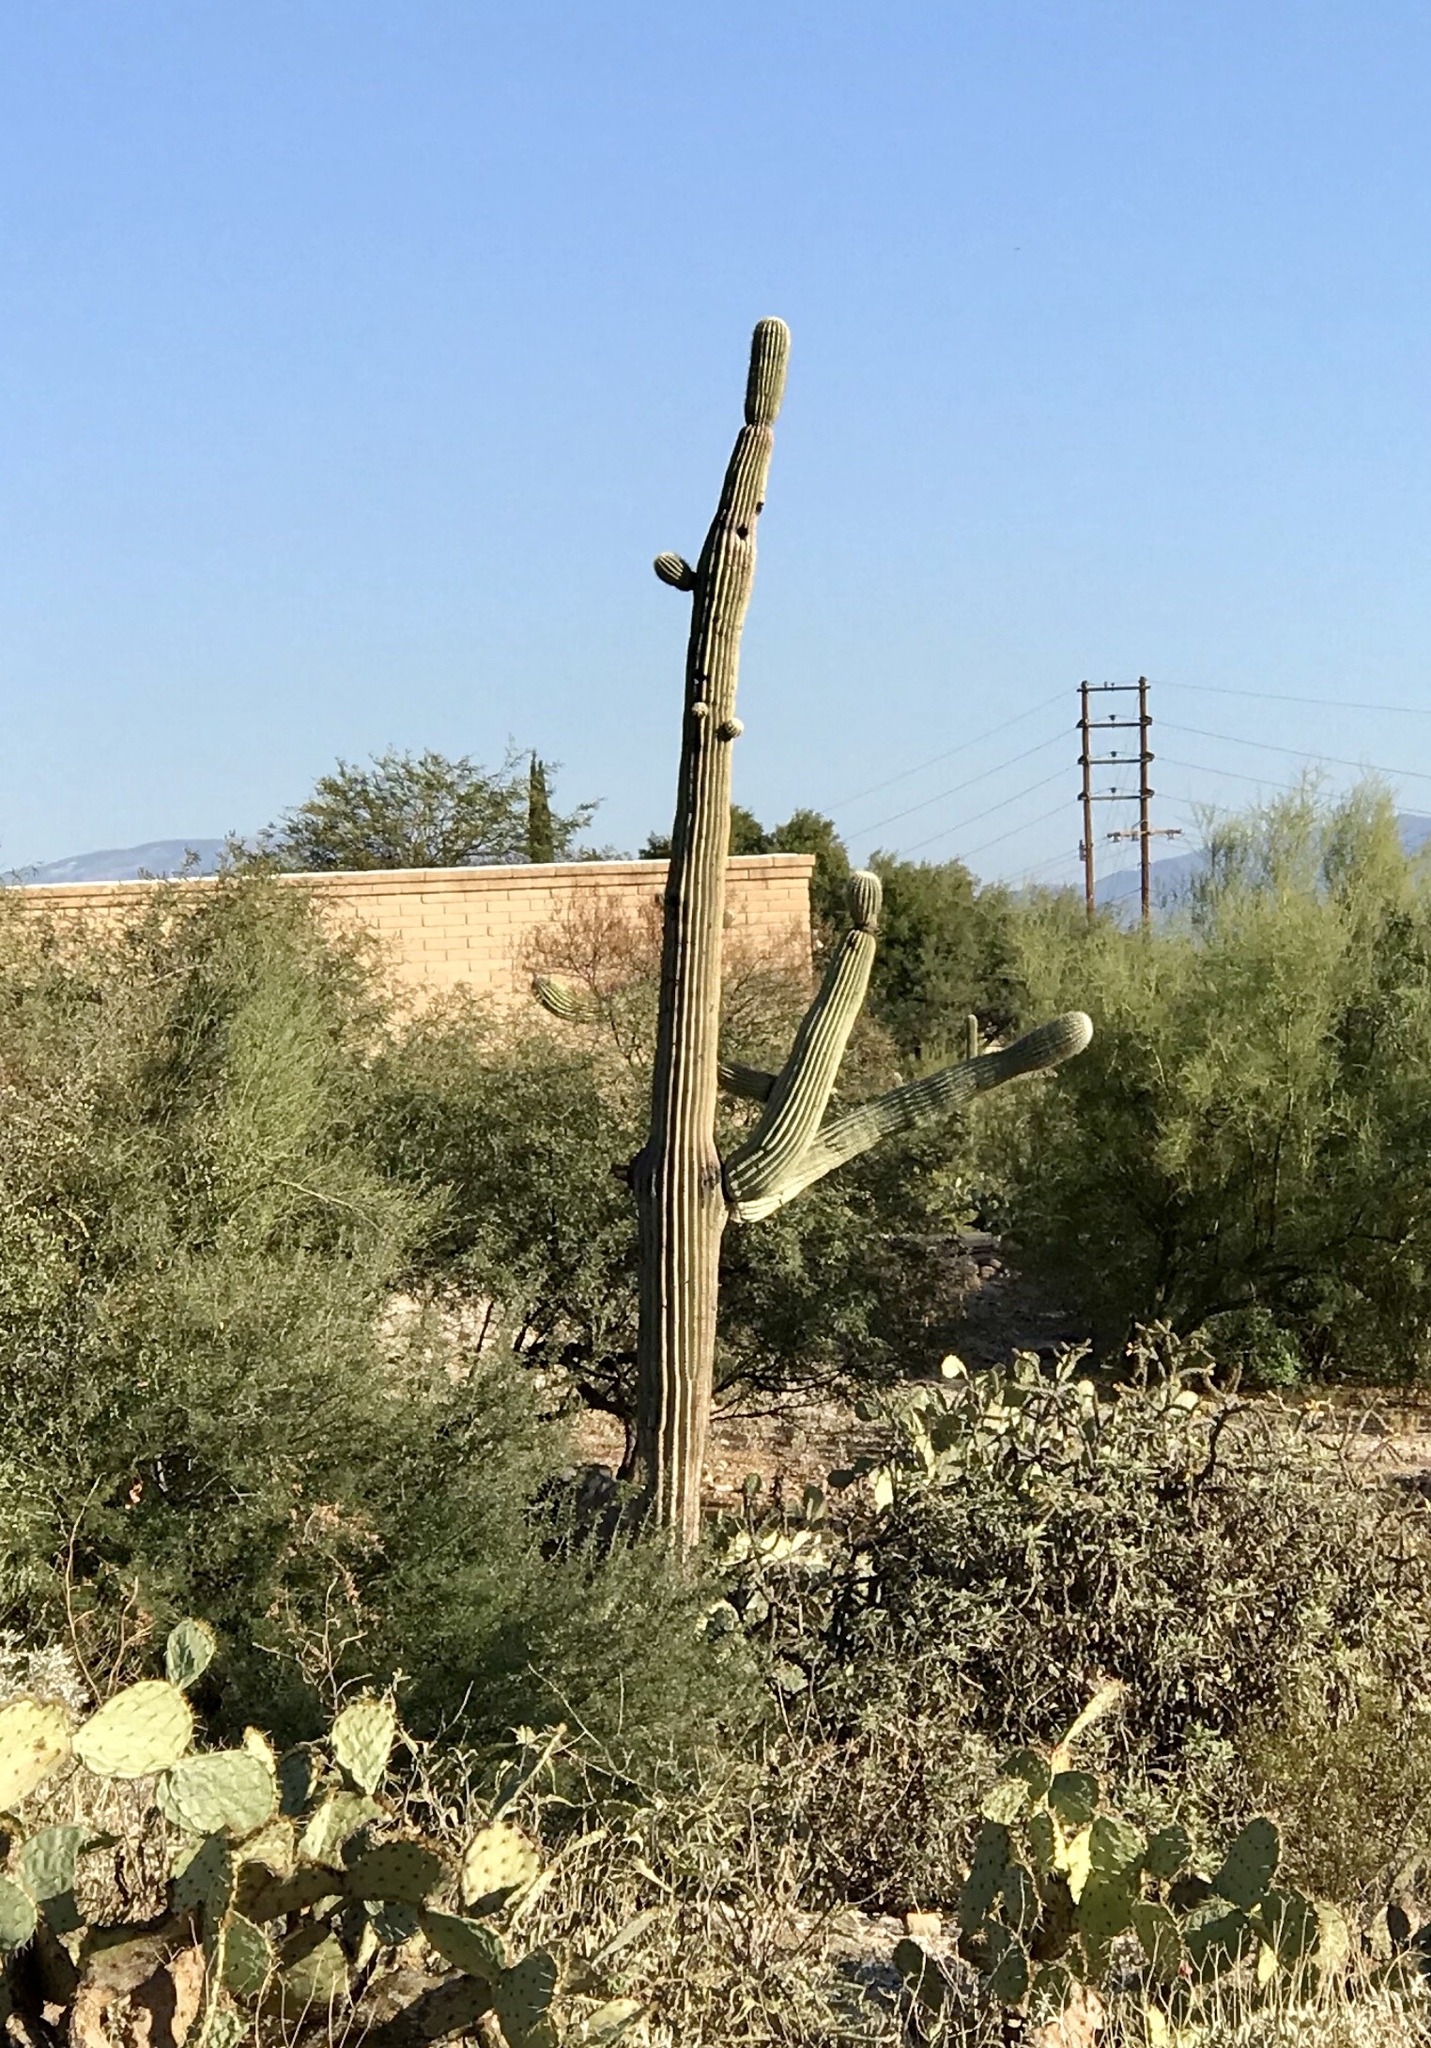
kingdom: Plantae
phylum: Tracheophyta
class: Magnoliopsida
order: Caryophyllales
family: Cactaceae
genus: Carnegiea
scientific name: Carnegiea gigantea
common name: Saguaro
